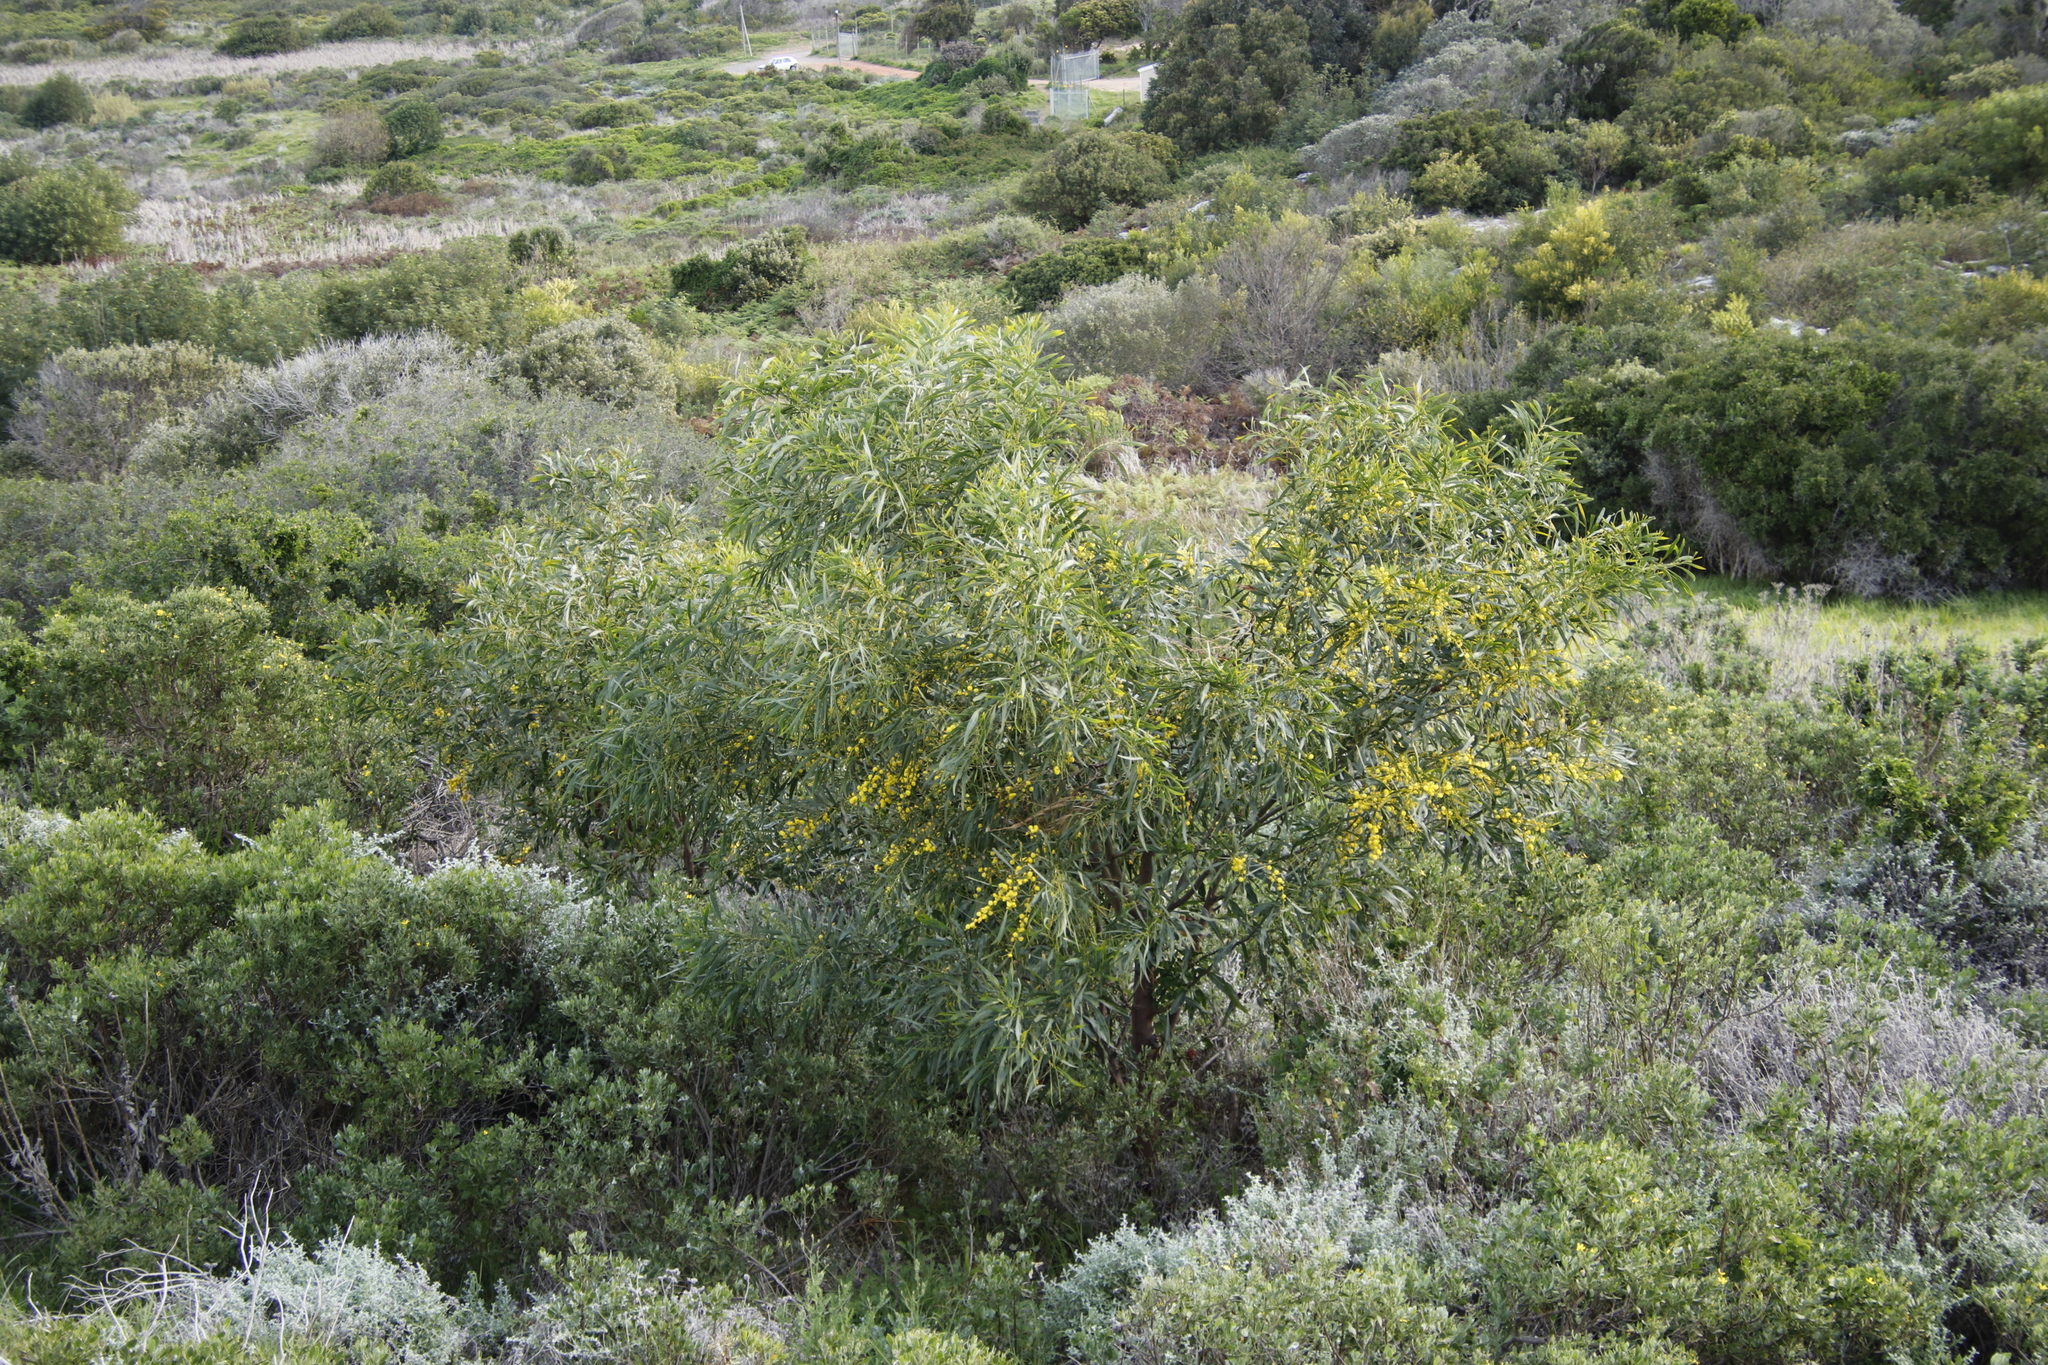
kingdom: Plantae
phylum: Tracheophyta
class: Magnoliopsida
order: Fabales
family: Fabaceae
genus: Acacia
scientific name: Acacia saligna
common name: Orange wattle
